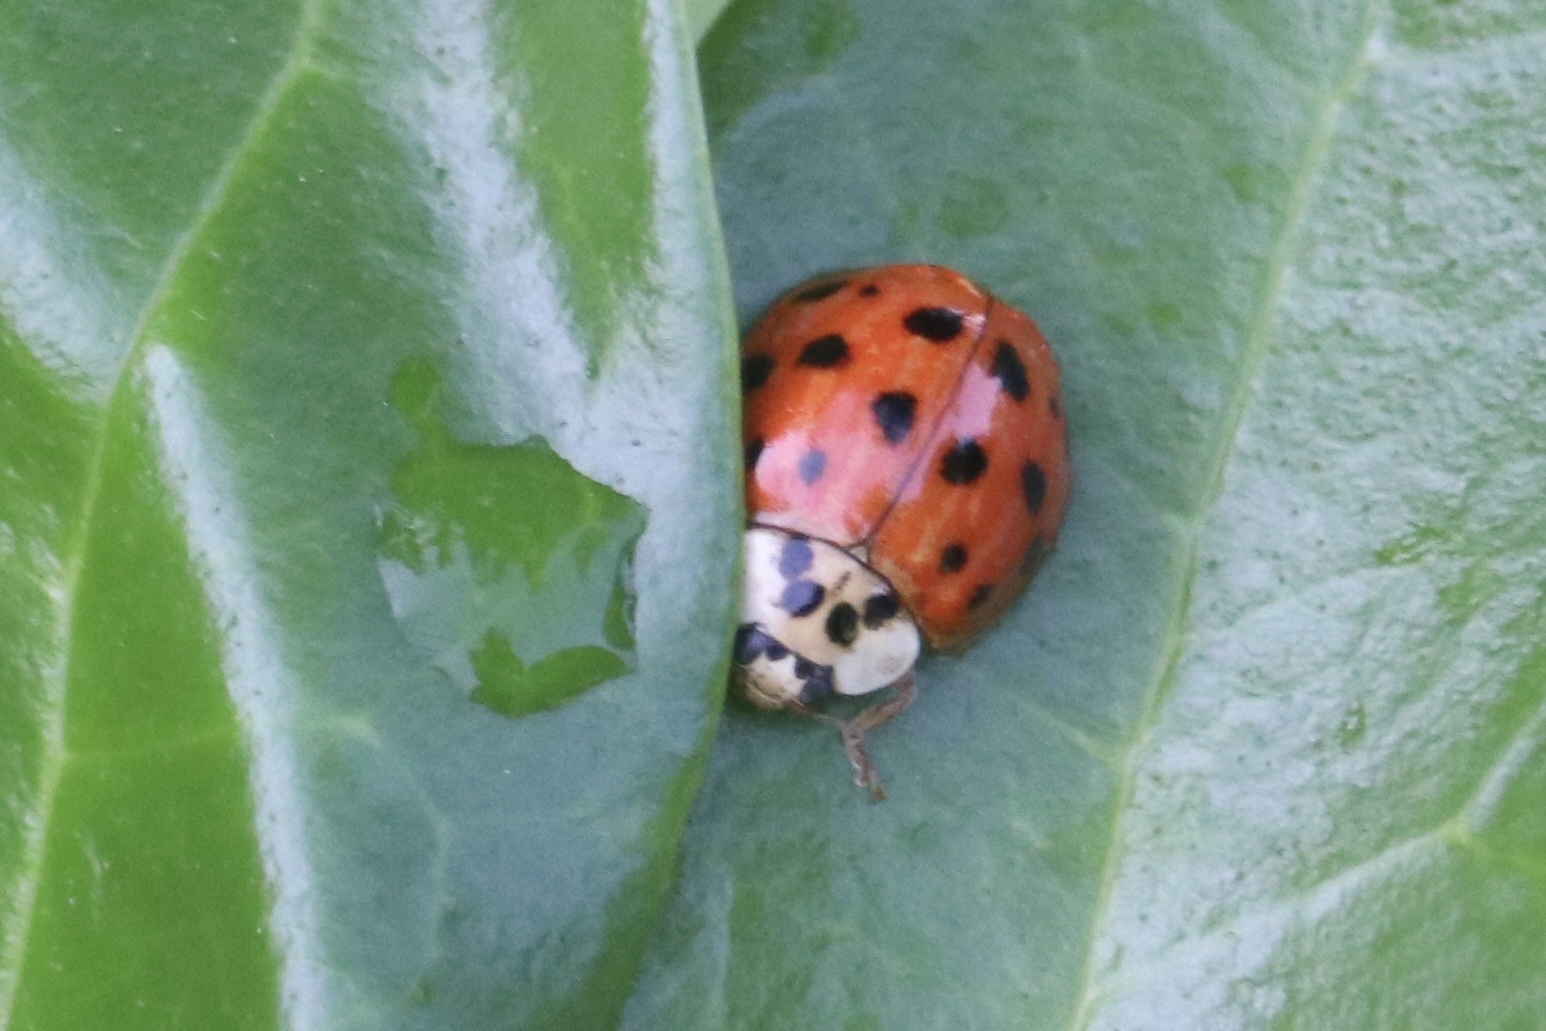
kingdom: Animalia
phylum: Arthropoda
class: Insecta
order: Coleoptera
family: Coccinellidae
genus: Harmonia
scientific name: Harmonia axyridis
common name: Harlequin ladybird
